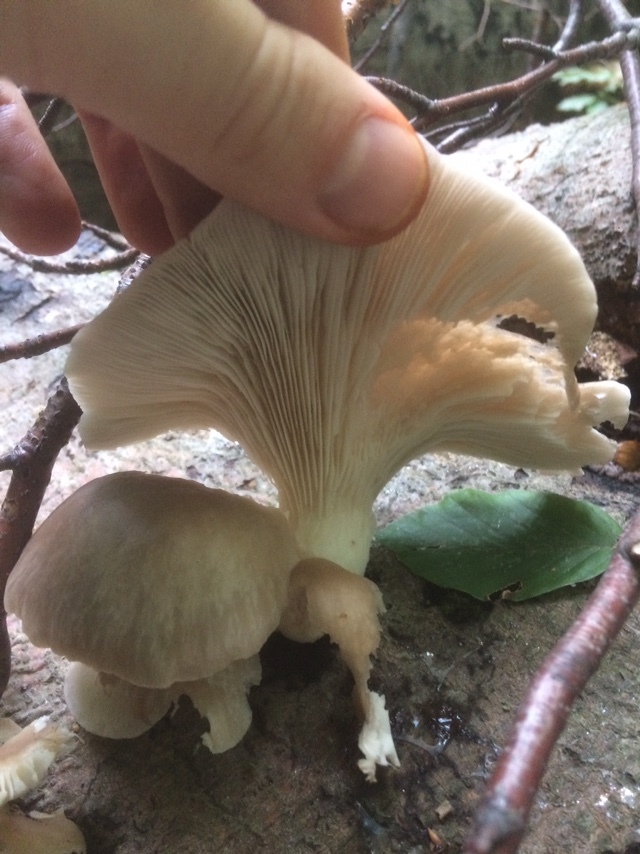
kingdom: Fungi
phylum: Basidiomycota
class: Agaricomycetes
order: Agaricales
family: Pleurotaceae
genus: Pleurotus
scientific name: Pleurotus ostreatus
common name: Oyster mushroom
